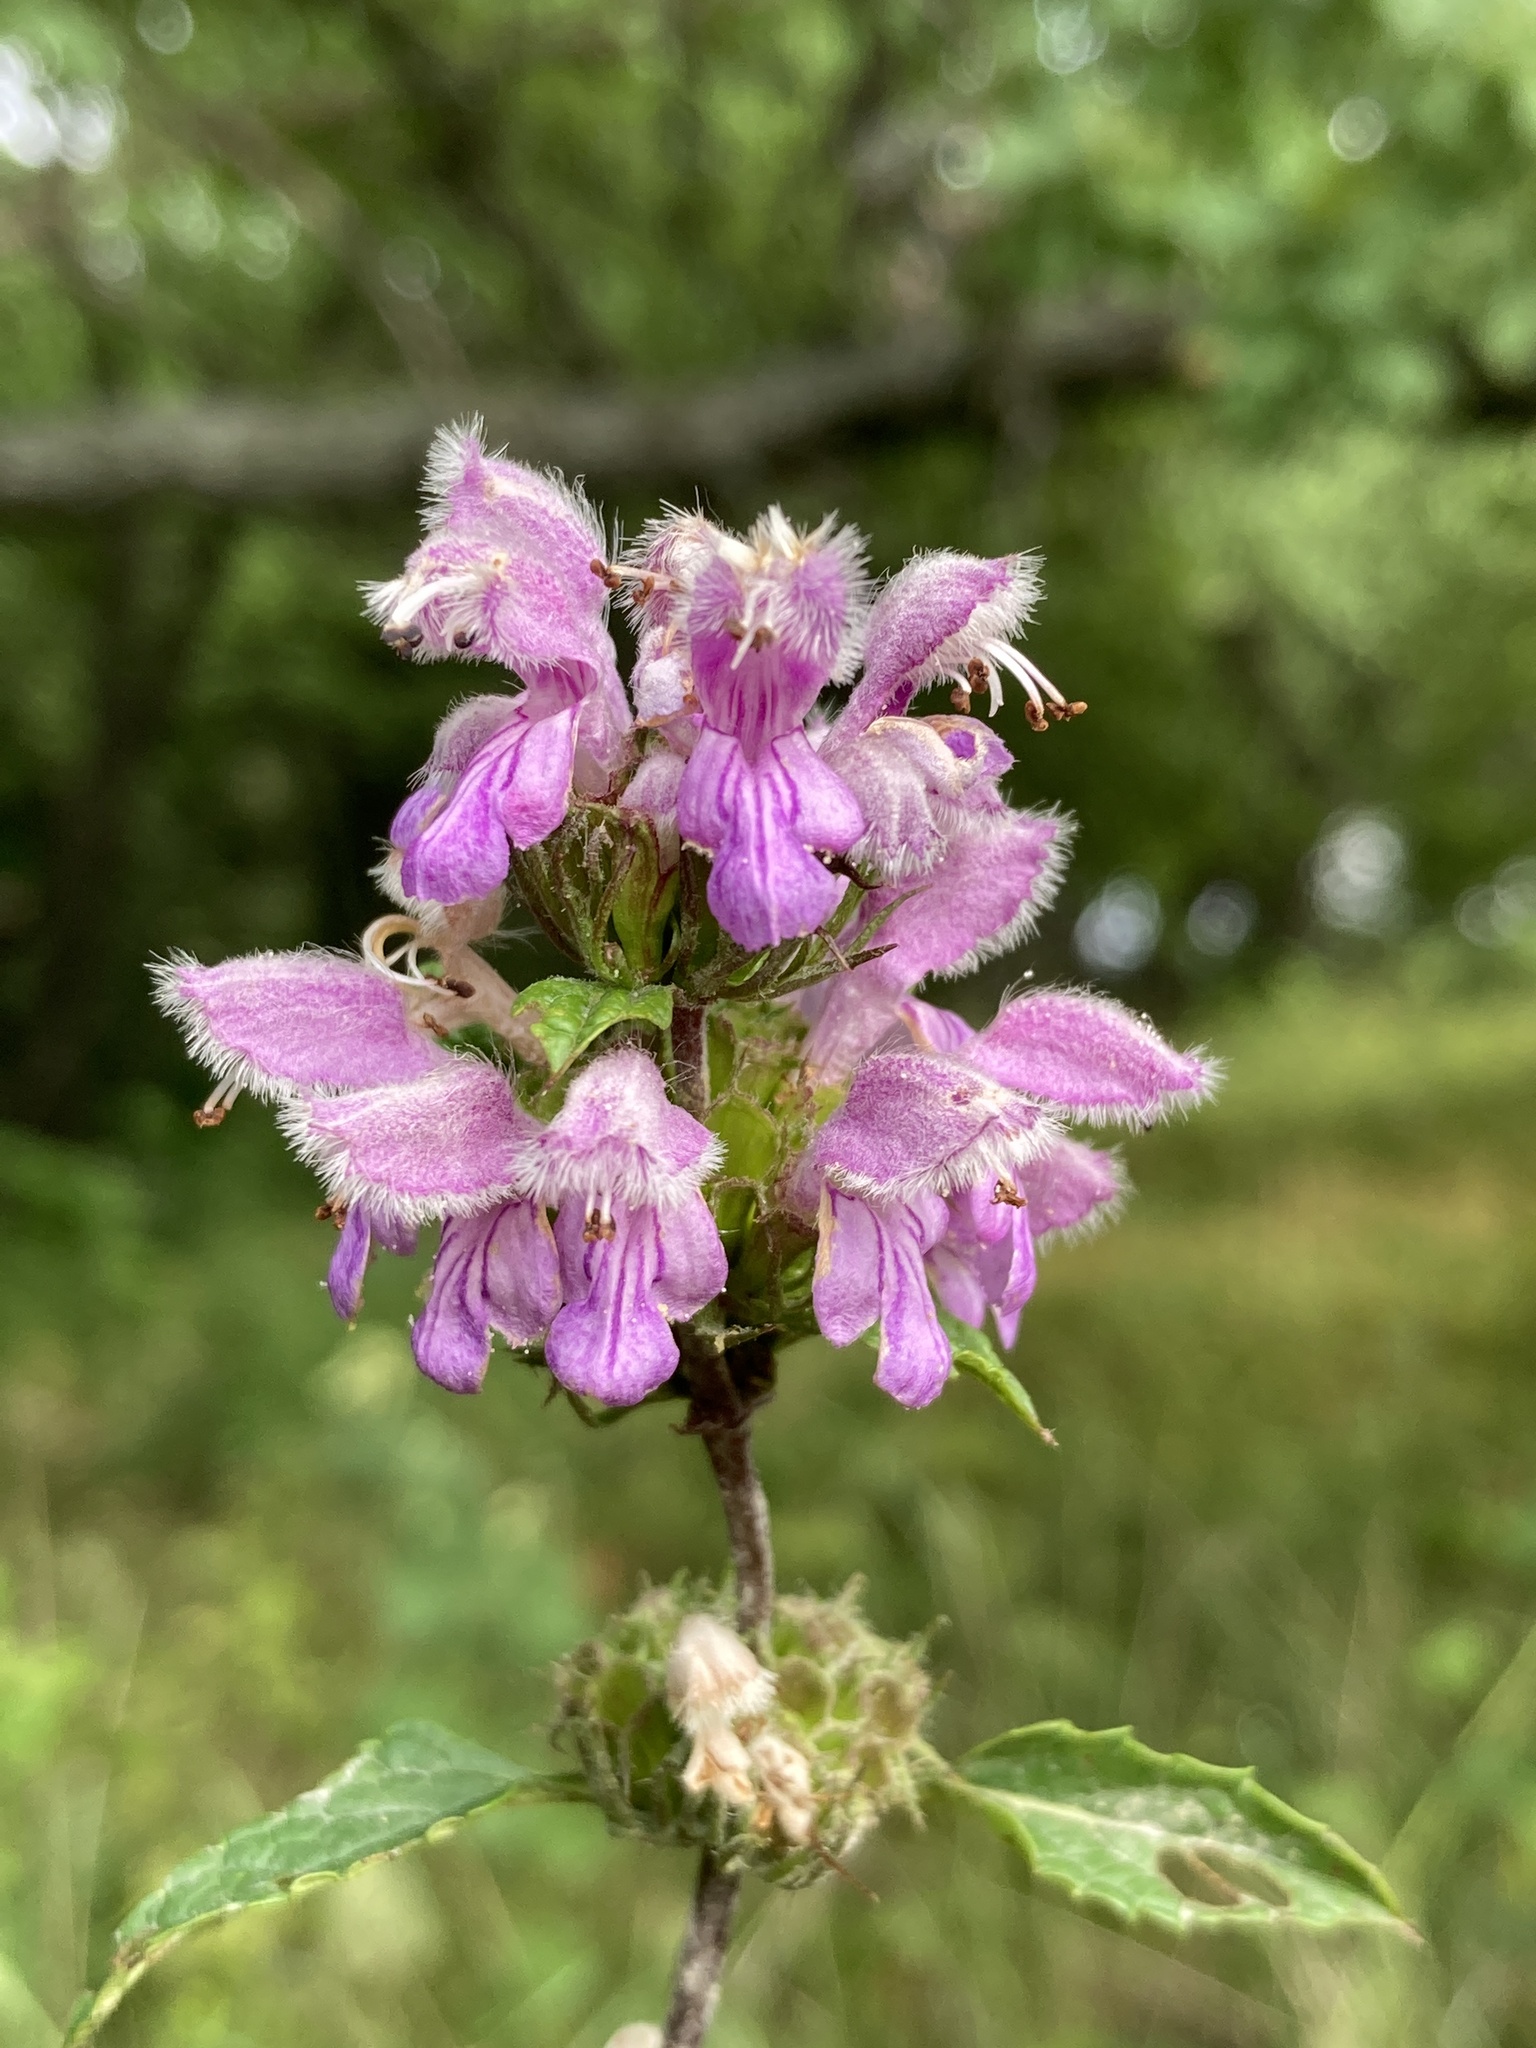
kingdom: Plantae
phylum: Tracheophyta
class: Magnoliopsida
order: Lamiales
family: Lamiaceae
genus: Phlomoides
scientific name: Phlomoides tuberosa
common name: Tuberous jerusalem sage
